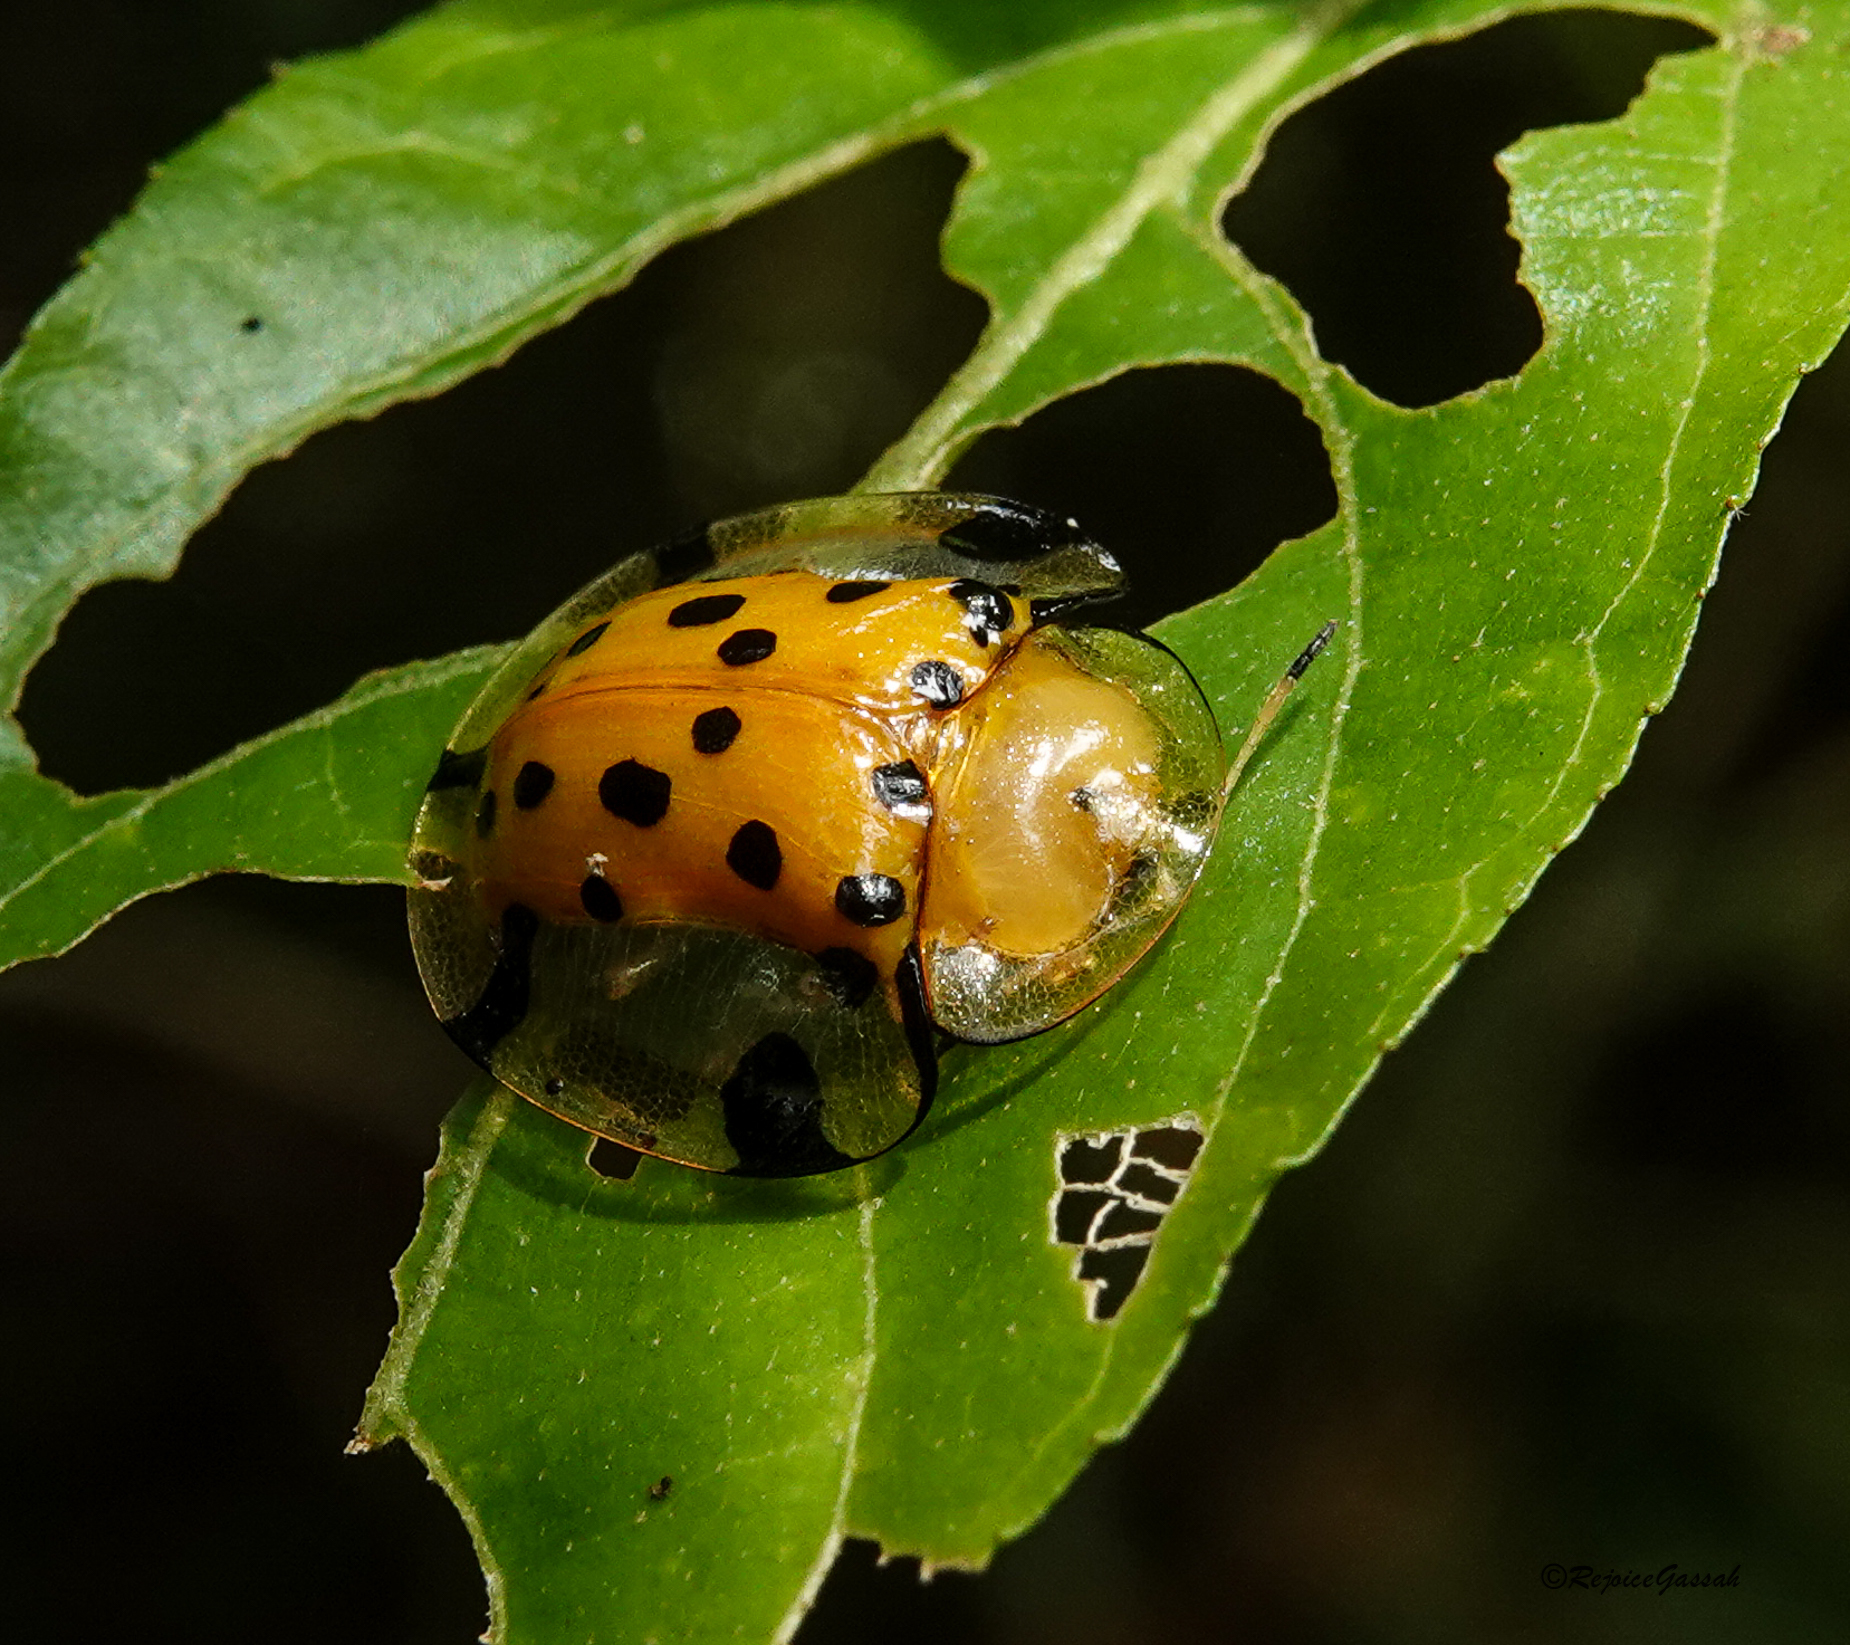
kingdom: Animalia
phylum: Arthropoda
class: Insecta
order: Coleoptera
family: Chrysomelidae
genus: Aspidimorpha
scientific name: Aspidimorpha miliaris
